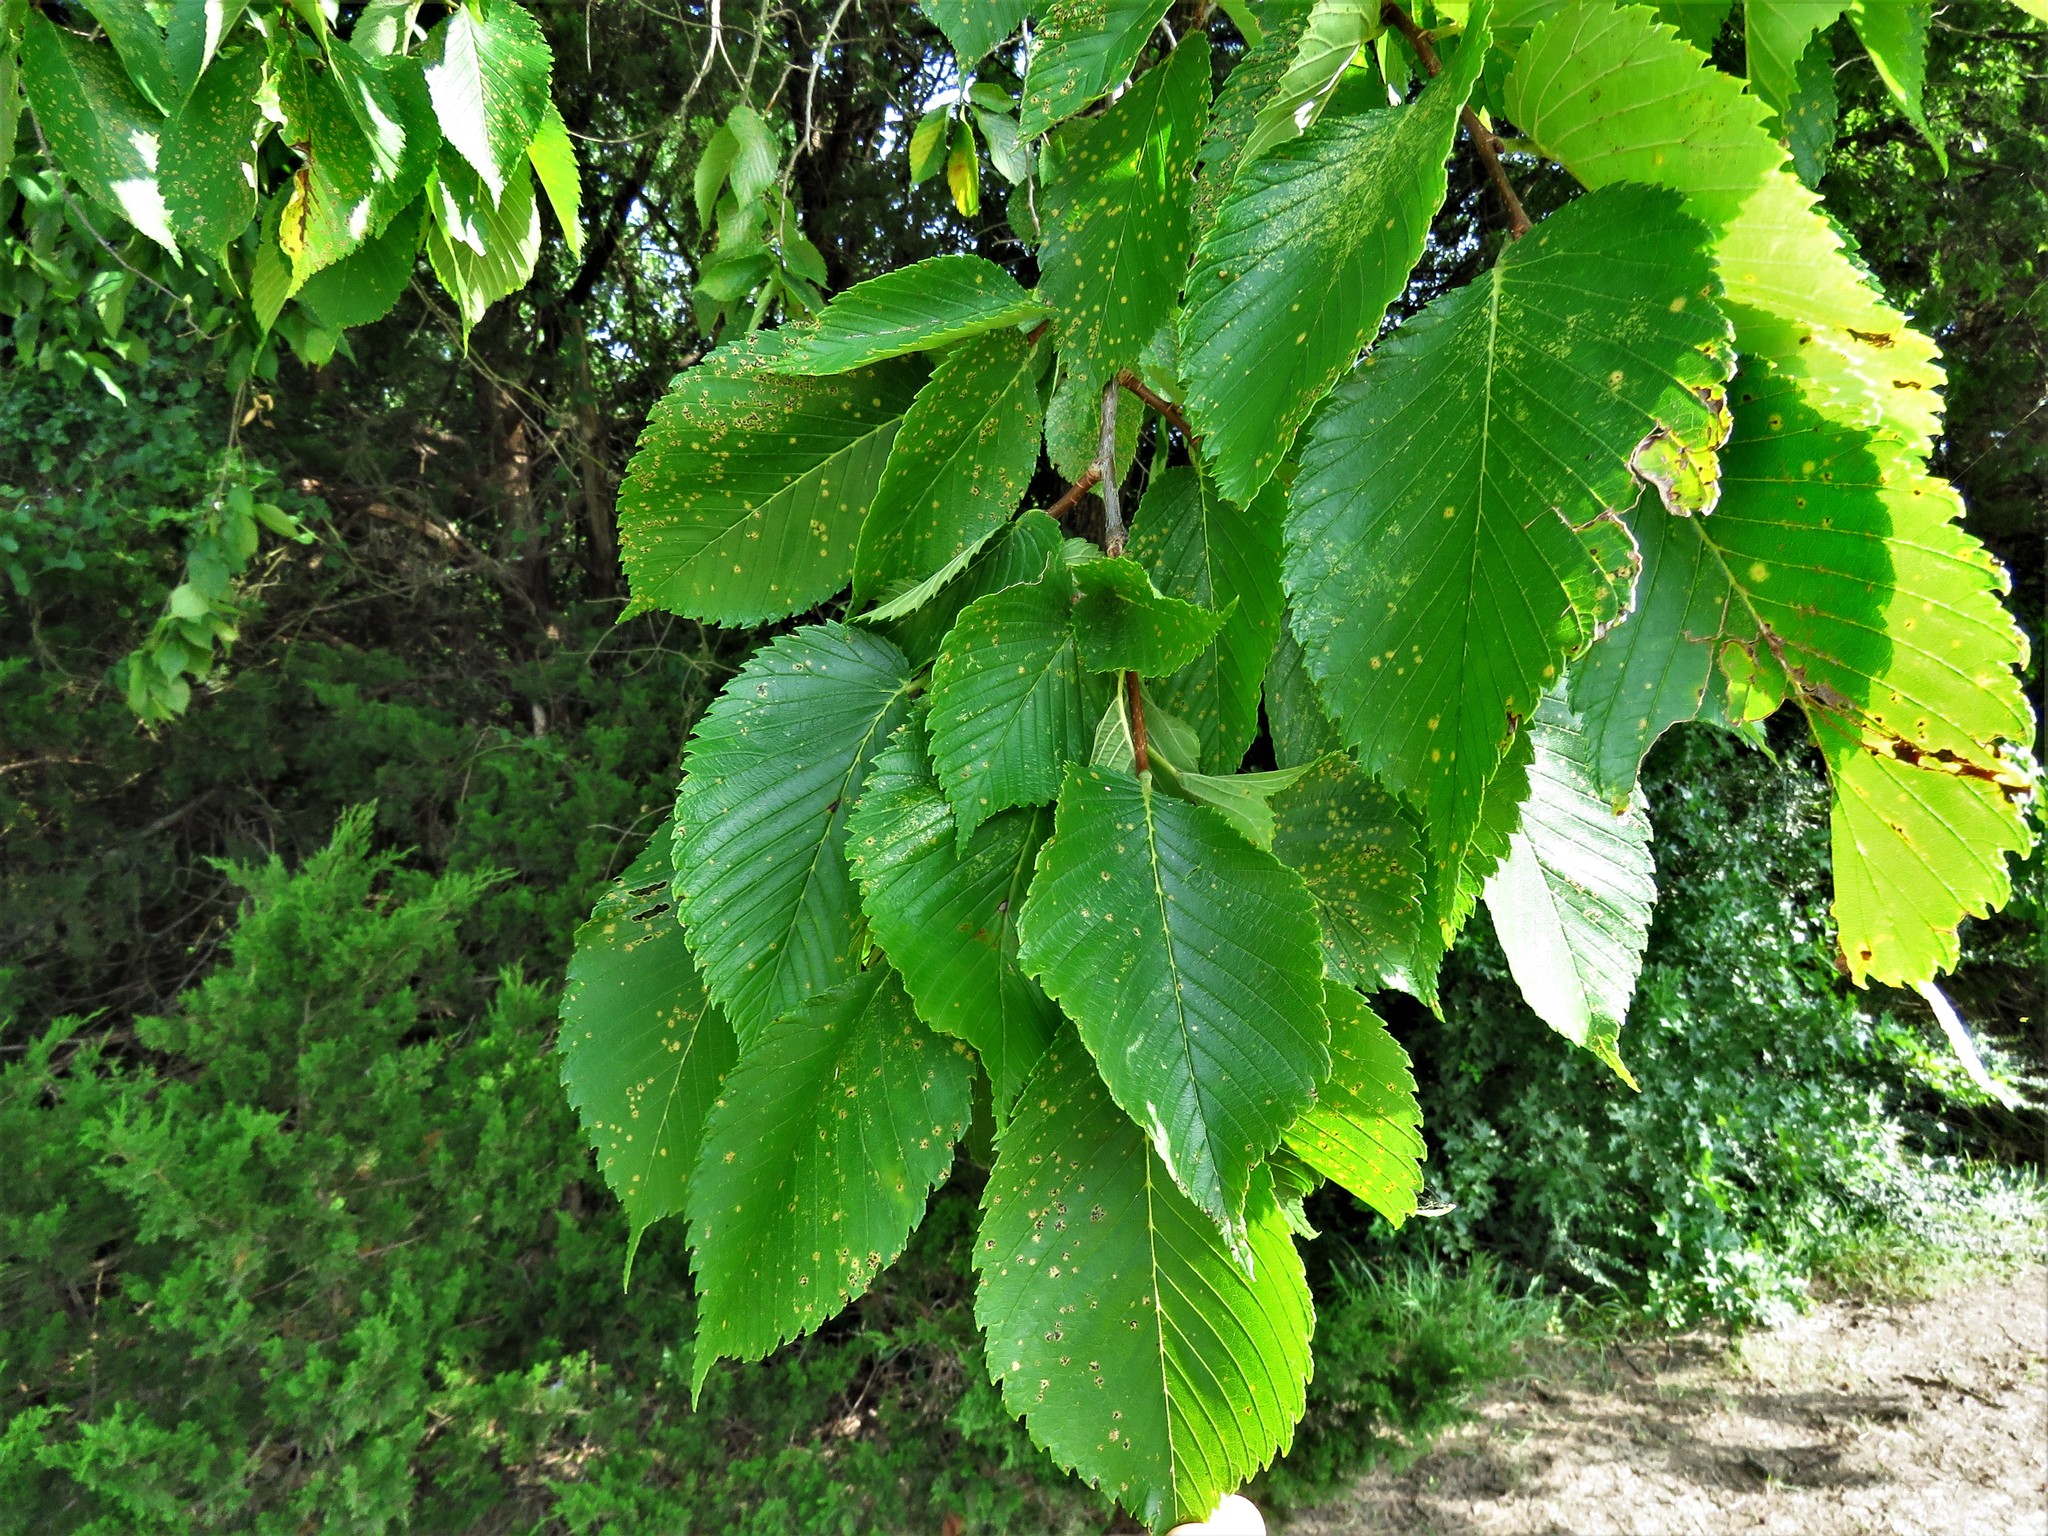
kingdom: Plantae
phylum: Tracheophyta
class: Magnoliopsida
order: Rosales
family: Ulmaceae
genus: Ulmus
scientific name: Ulmus americana
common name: American elm
